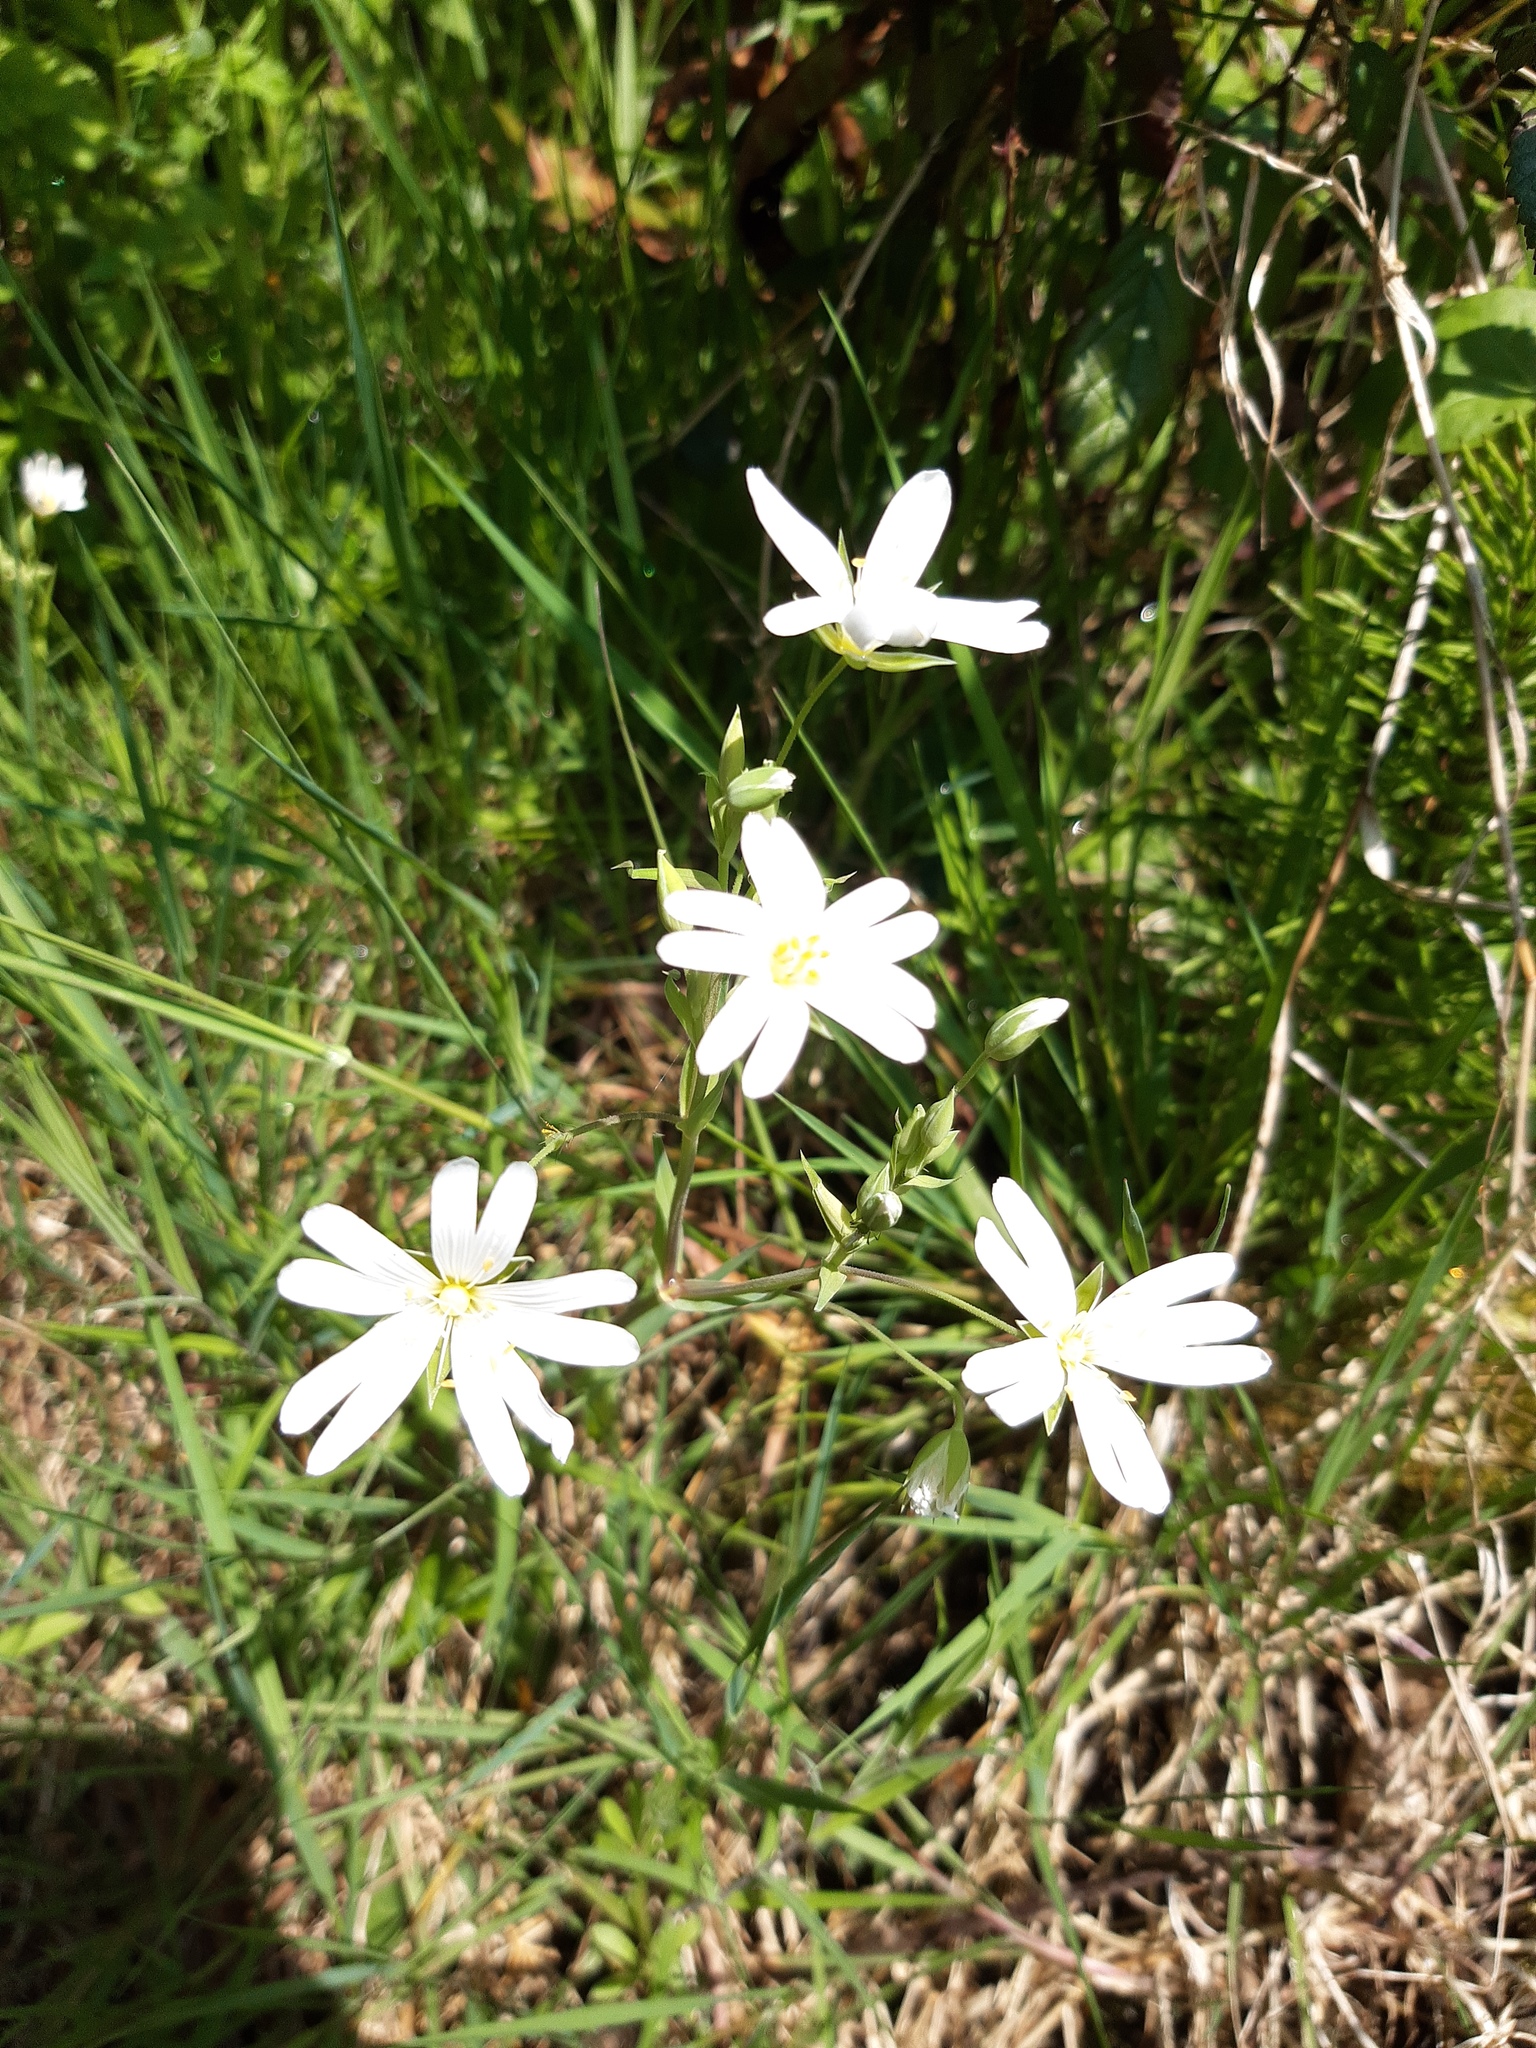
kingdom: Plantae
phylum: Tracheophyta
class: Magnoliopsida
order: Caryophyllales
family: Caryophyllaceae
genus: Rabelera
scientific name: Rabelera holostea
